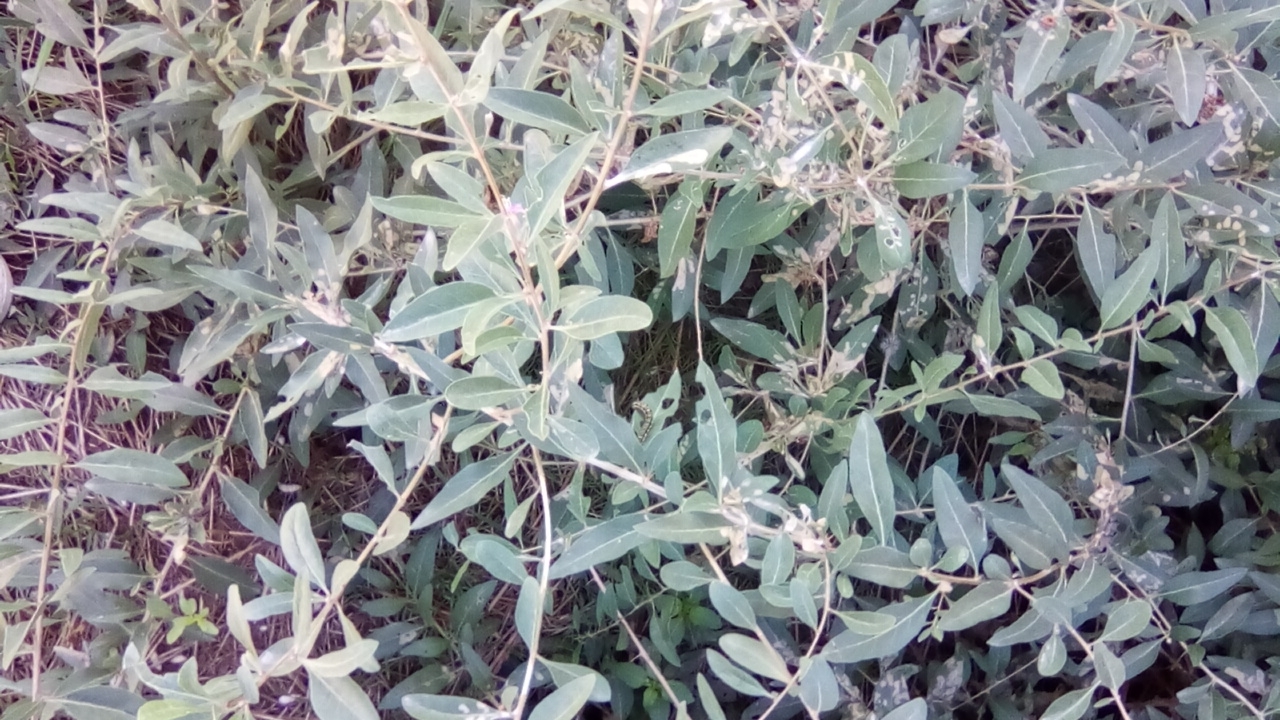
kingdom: Plantae
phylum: Tracheophyta
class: Magnoliopsida
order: Solanales
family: Solanaceae
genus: Lycium
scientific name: Lycium barbarum
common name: Duke of argyll's teaplant
